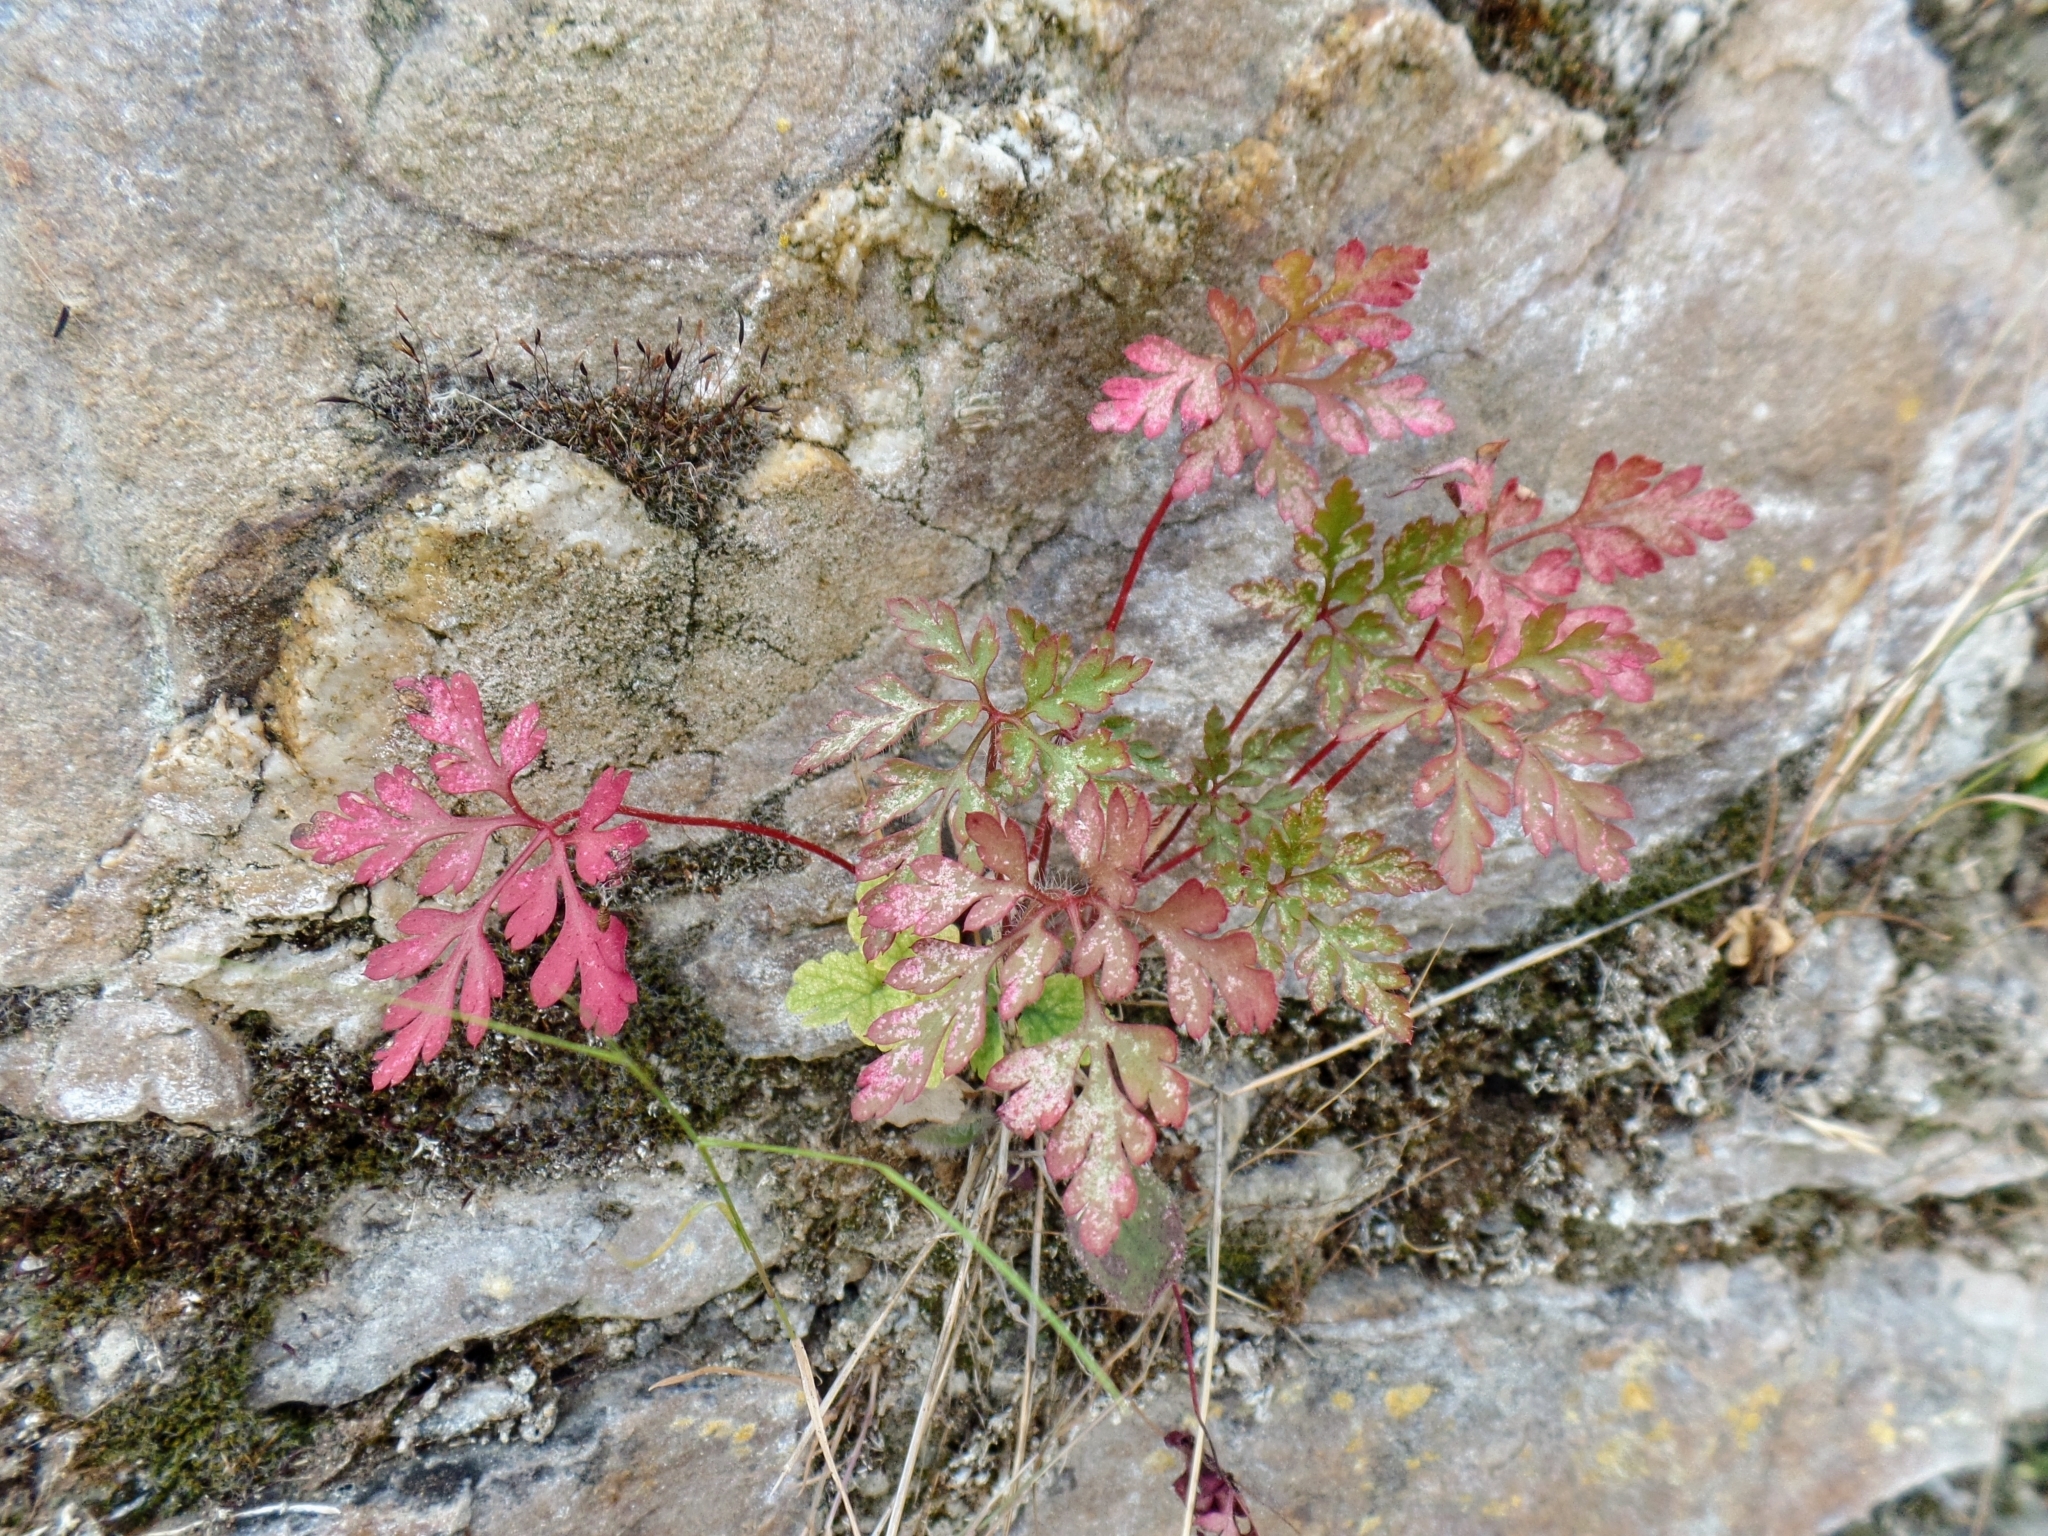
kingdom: Plantae
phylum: Tracheophyta
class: Magnoliopsida
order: Geraniales
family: Geraniaceae
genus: Geranium
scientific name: Geranium robertianum
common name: Herb-robert
